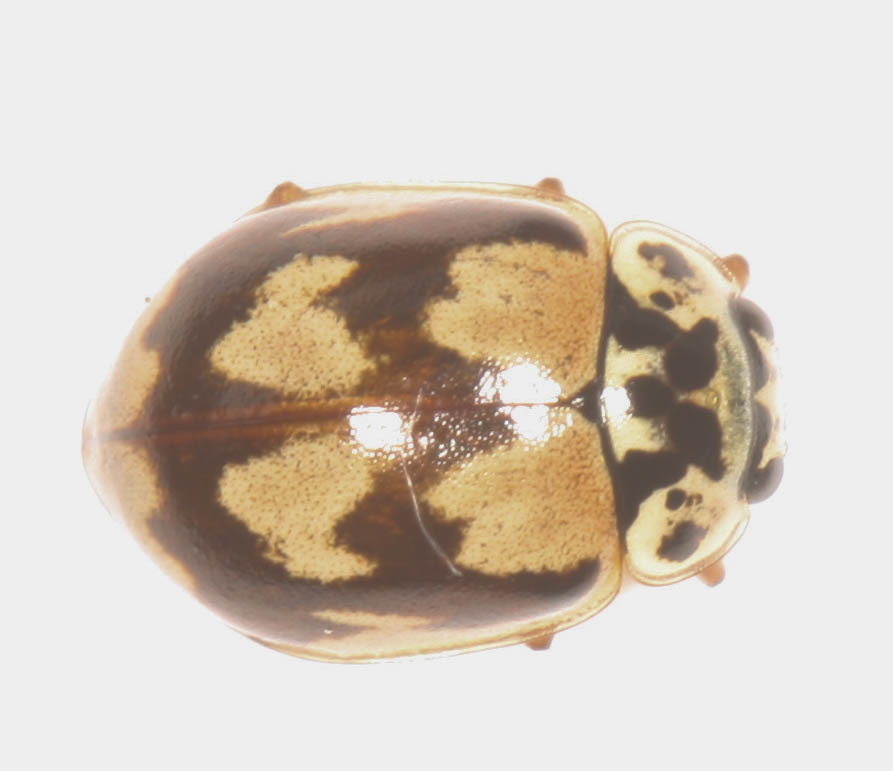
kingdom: Animalia
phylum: Arthropoda
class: Insecta
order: Coleoptera
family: Coccinellidae
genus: Mulsantina
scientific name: Mulsantina picta
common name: Painted ladybird
